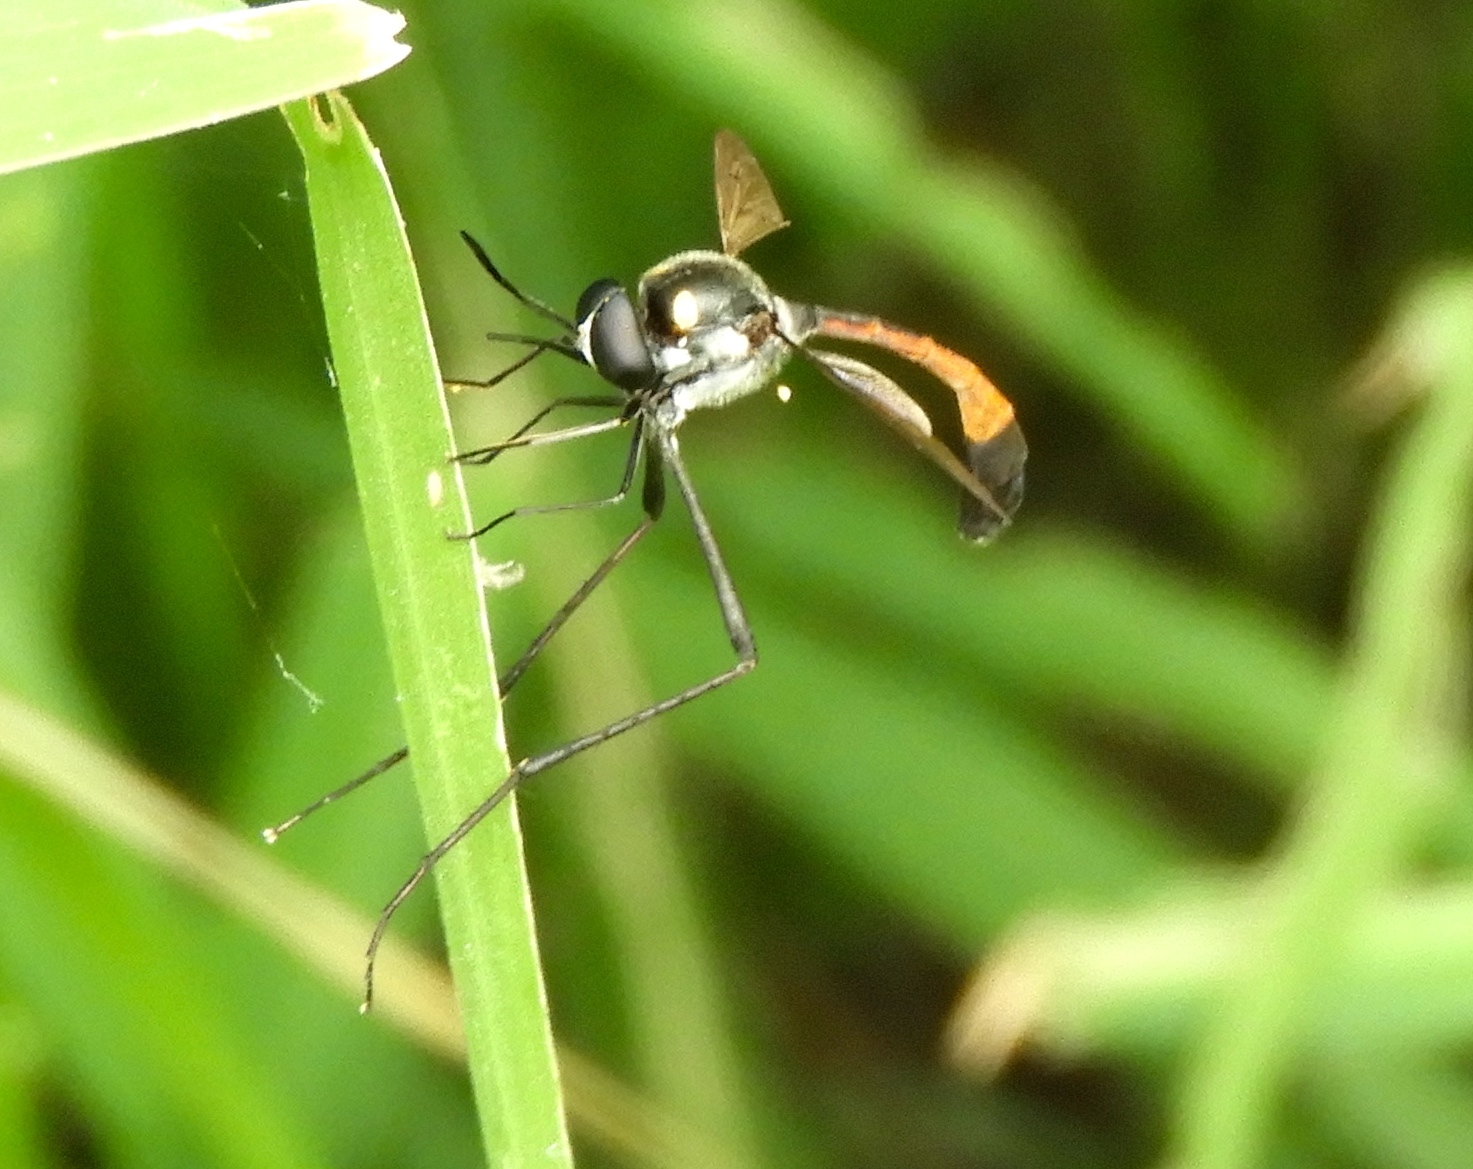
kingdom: Animalia
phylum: Arthropoda
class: Insecta
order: Diptera
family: Bombyliidae
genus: Systropus
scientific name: Systropus
